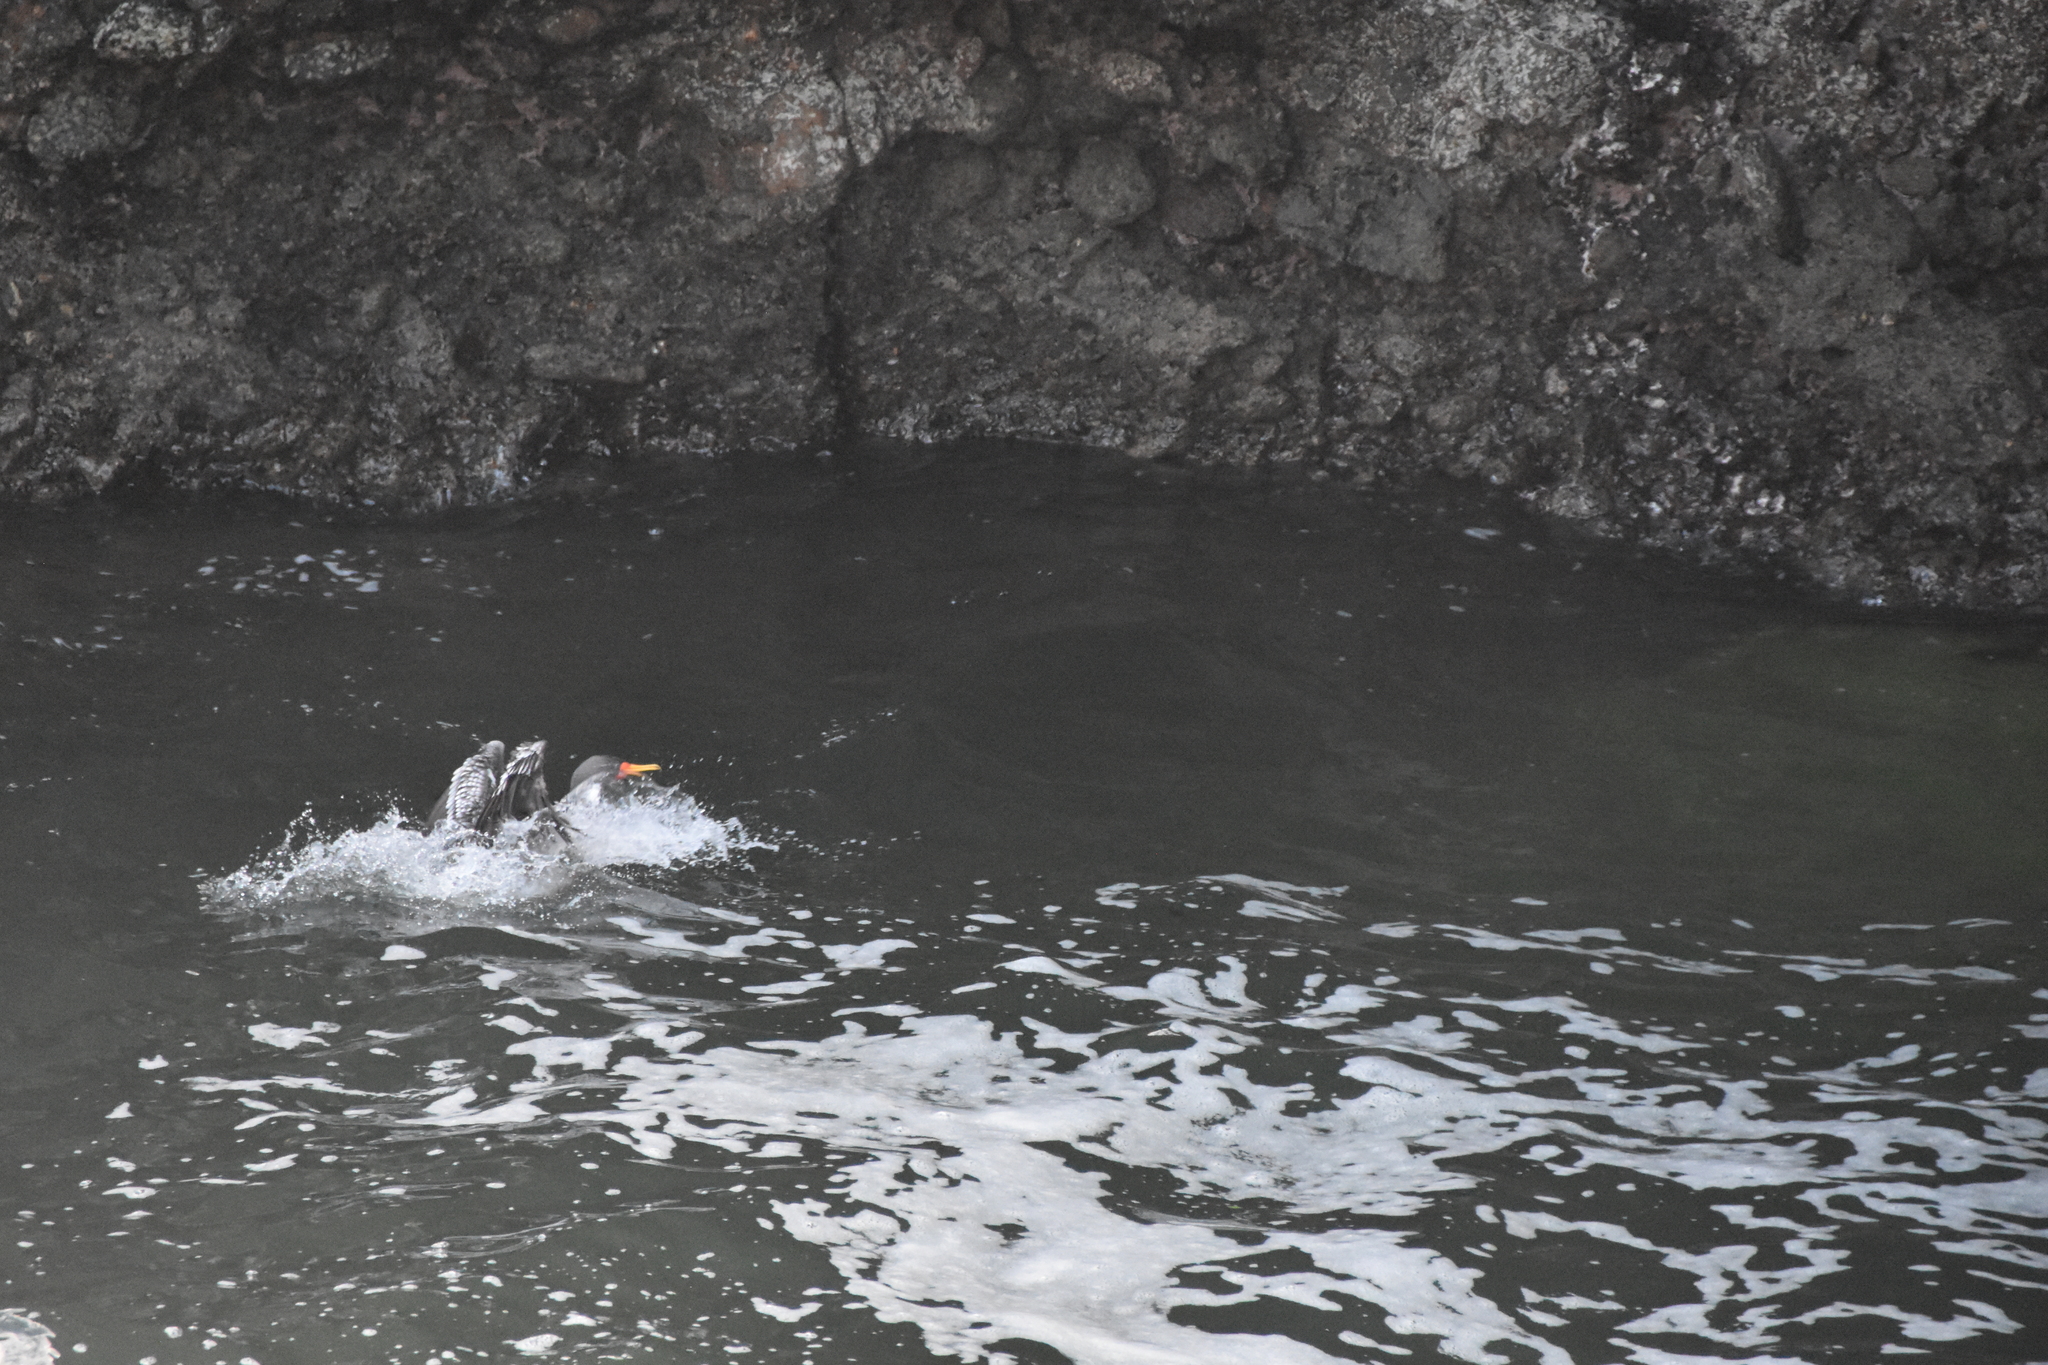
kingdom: Animalia
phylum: Chordata
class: Aves
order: Suliformes
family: Phalacrocoracidae
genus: Phalacrocorax
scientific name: Phalacrocorax gaimardi
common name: Red-legged cormorant
